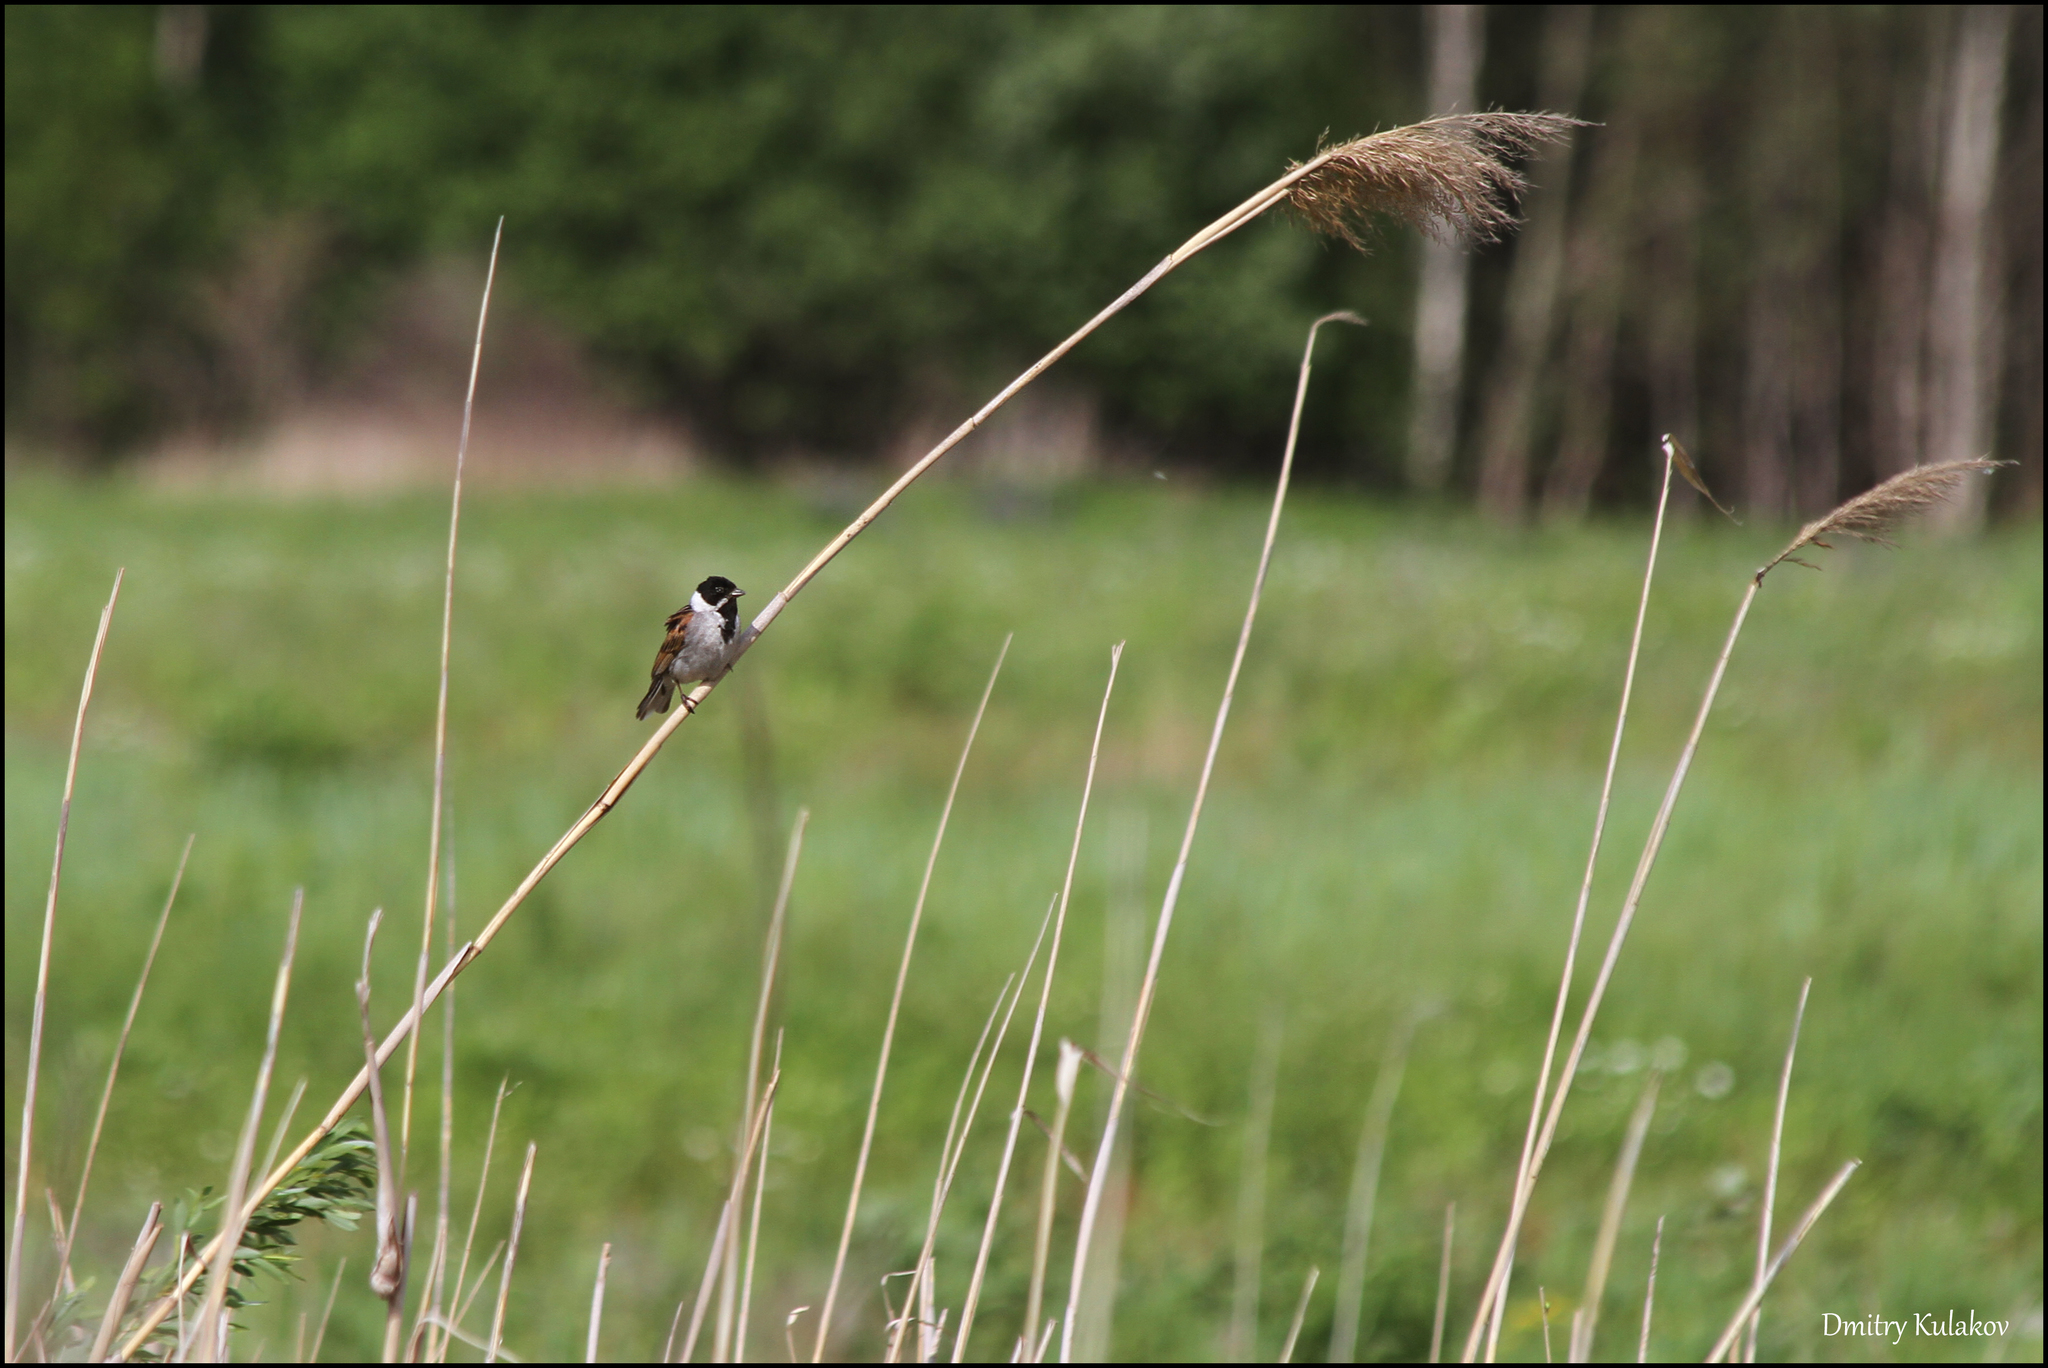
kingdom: Animalia
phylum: Chordata
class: Aves
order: Passeriformes
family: Emberizidae
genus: Emberiza
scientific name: Emberiza schoeniclus
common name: Reed bunting
